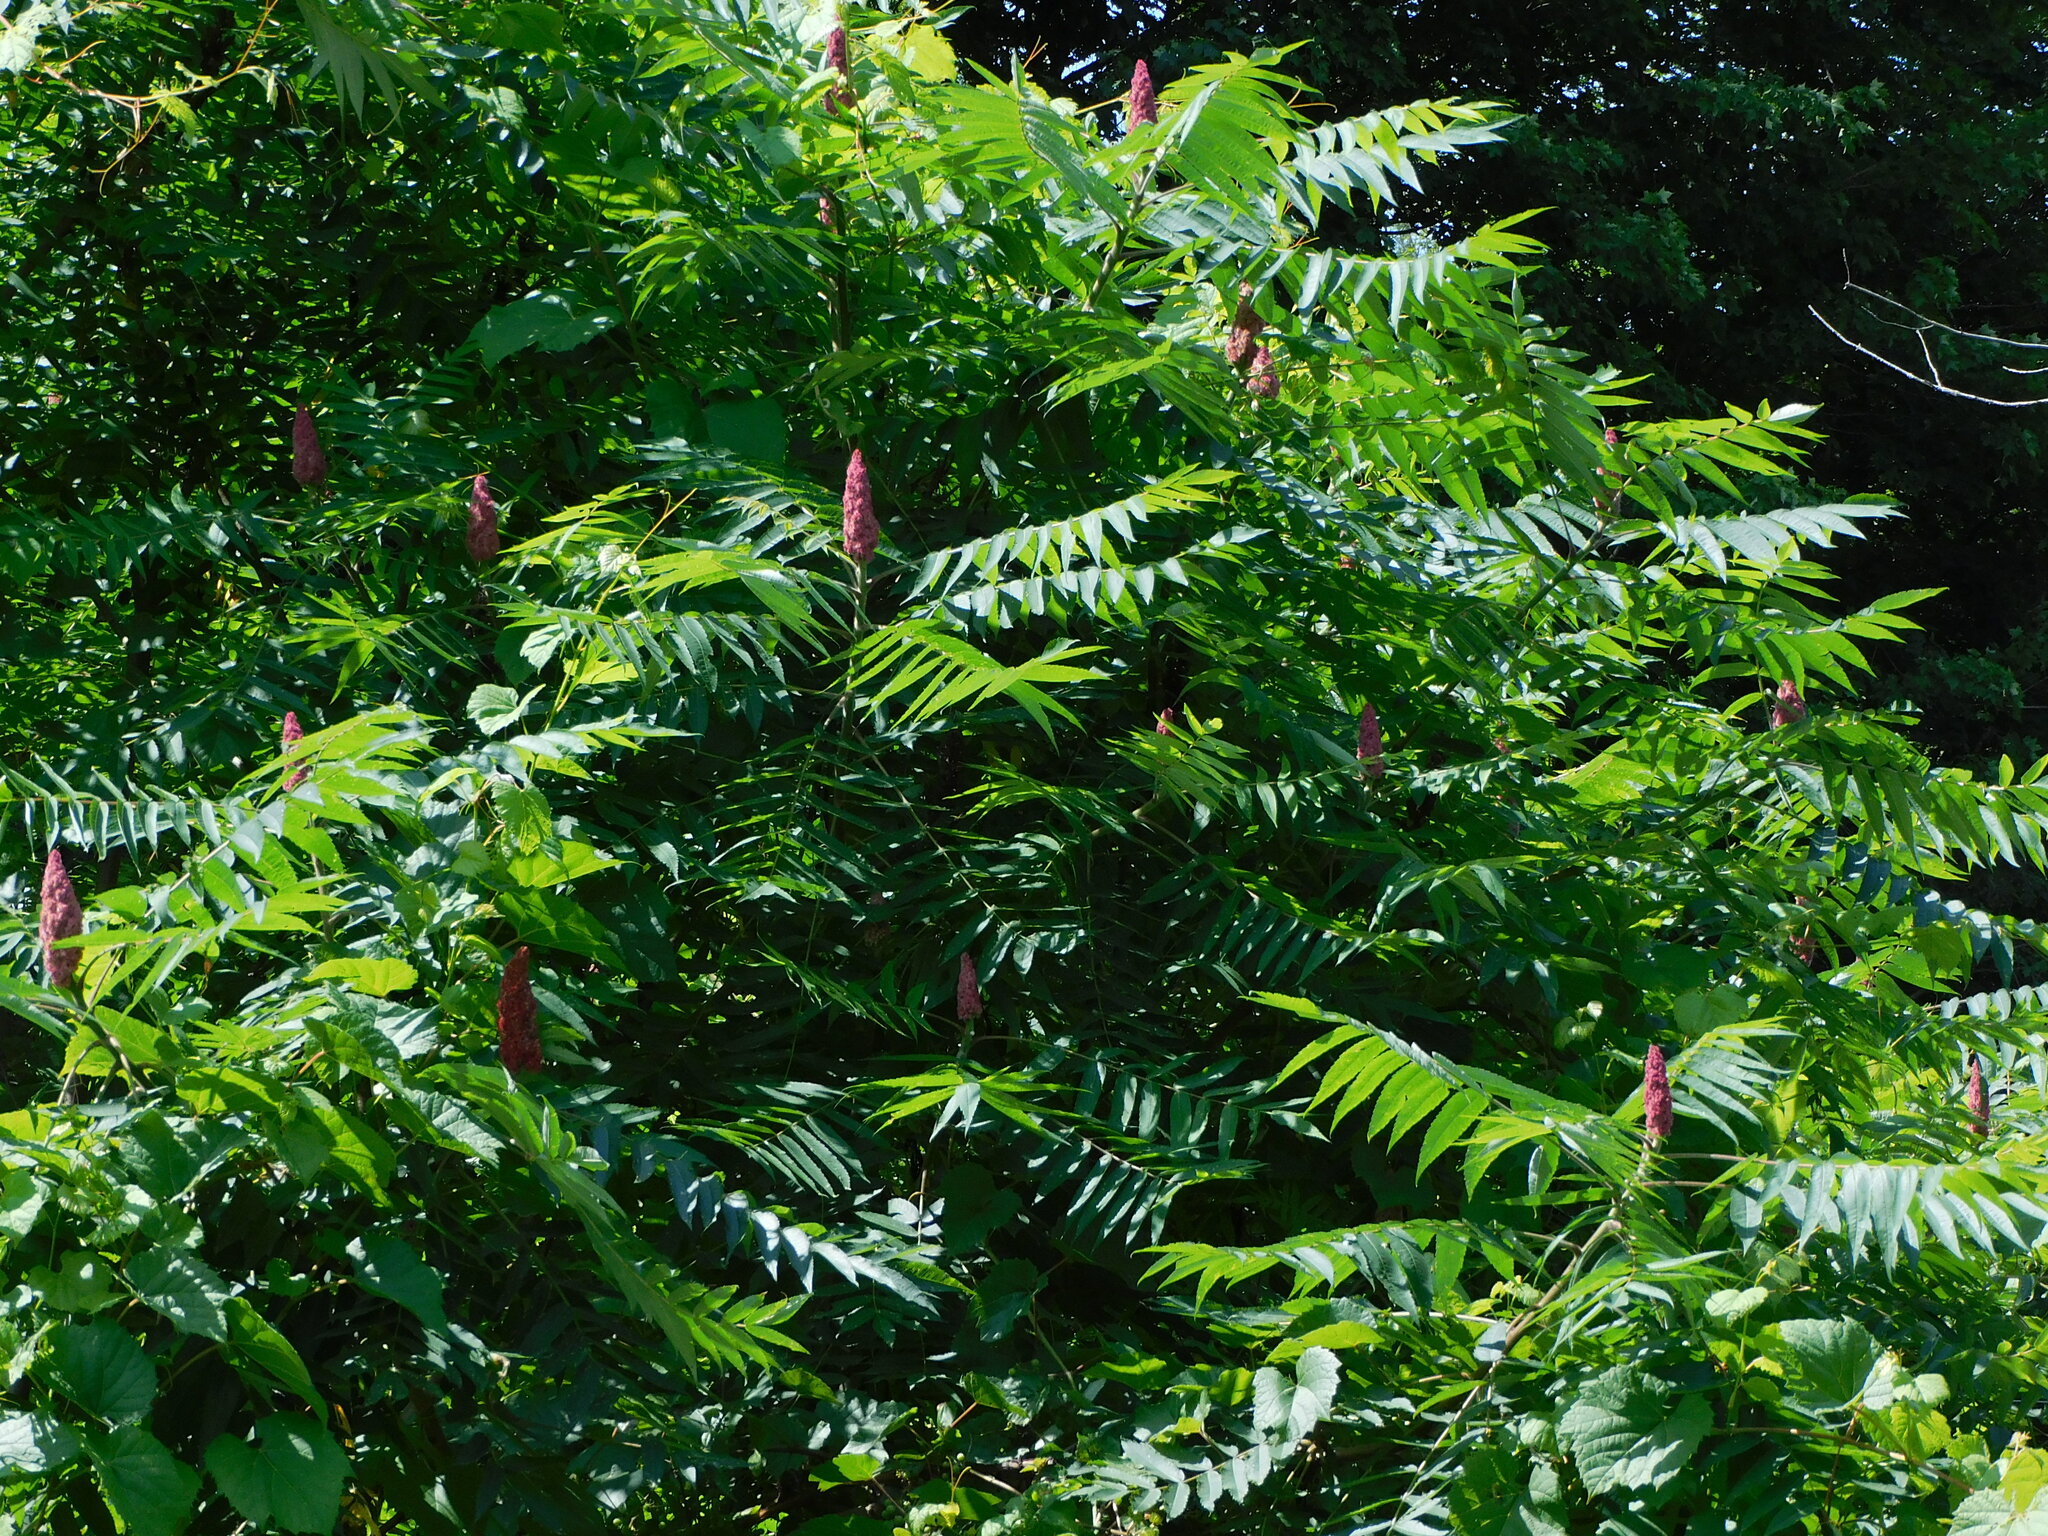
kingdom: Plantae
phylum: Tracheophyta
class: Magnoliopsida
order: Sapindales
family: Anacardiaceae
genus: Rhus
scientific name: Rhus typhina
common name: Staghorn sumac
